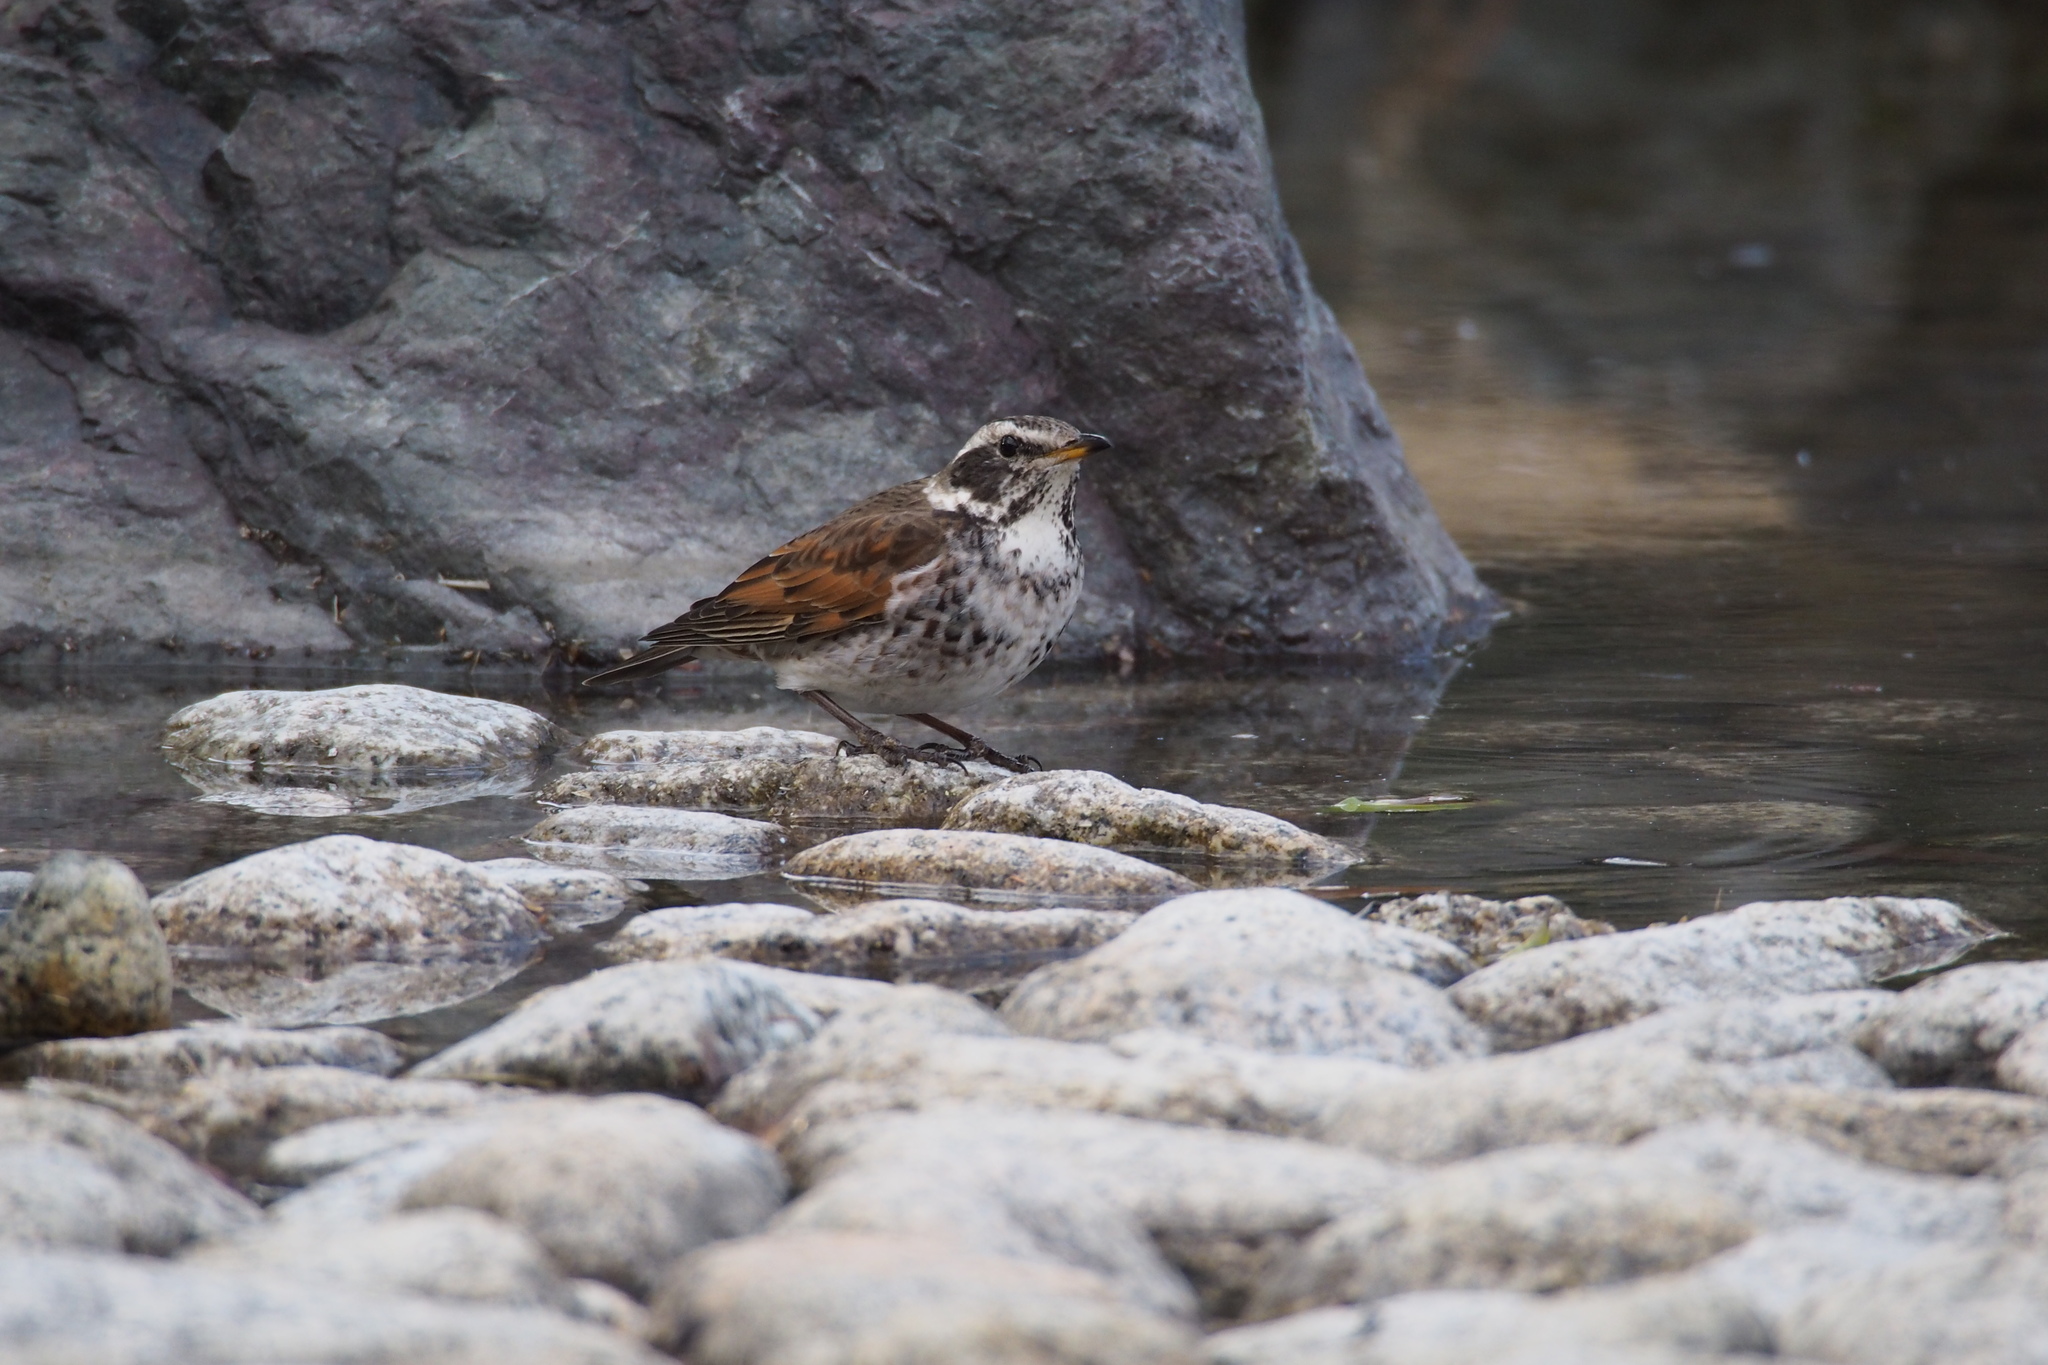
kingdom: Animalia
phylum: Chordata
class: Aves
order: Passeriformes
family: Turdidae
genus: Turdus
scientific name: Turdus eunomus
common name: Dusky thrush
